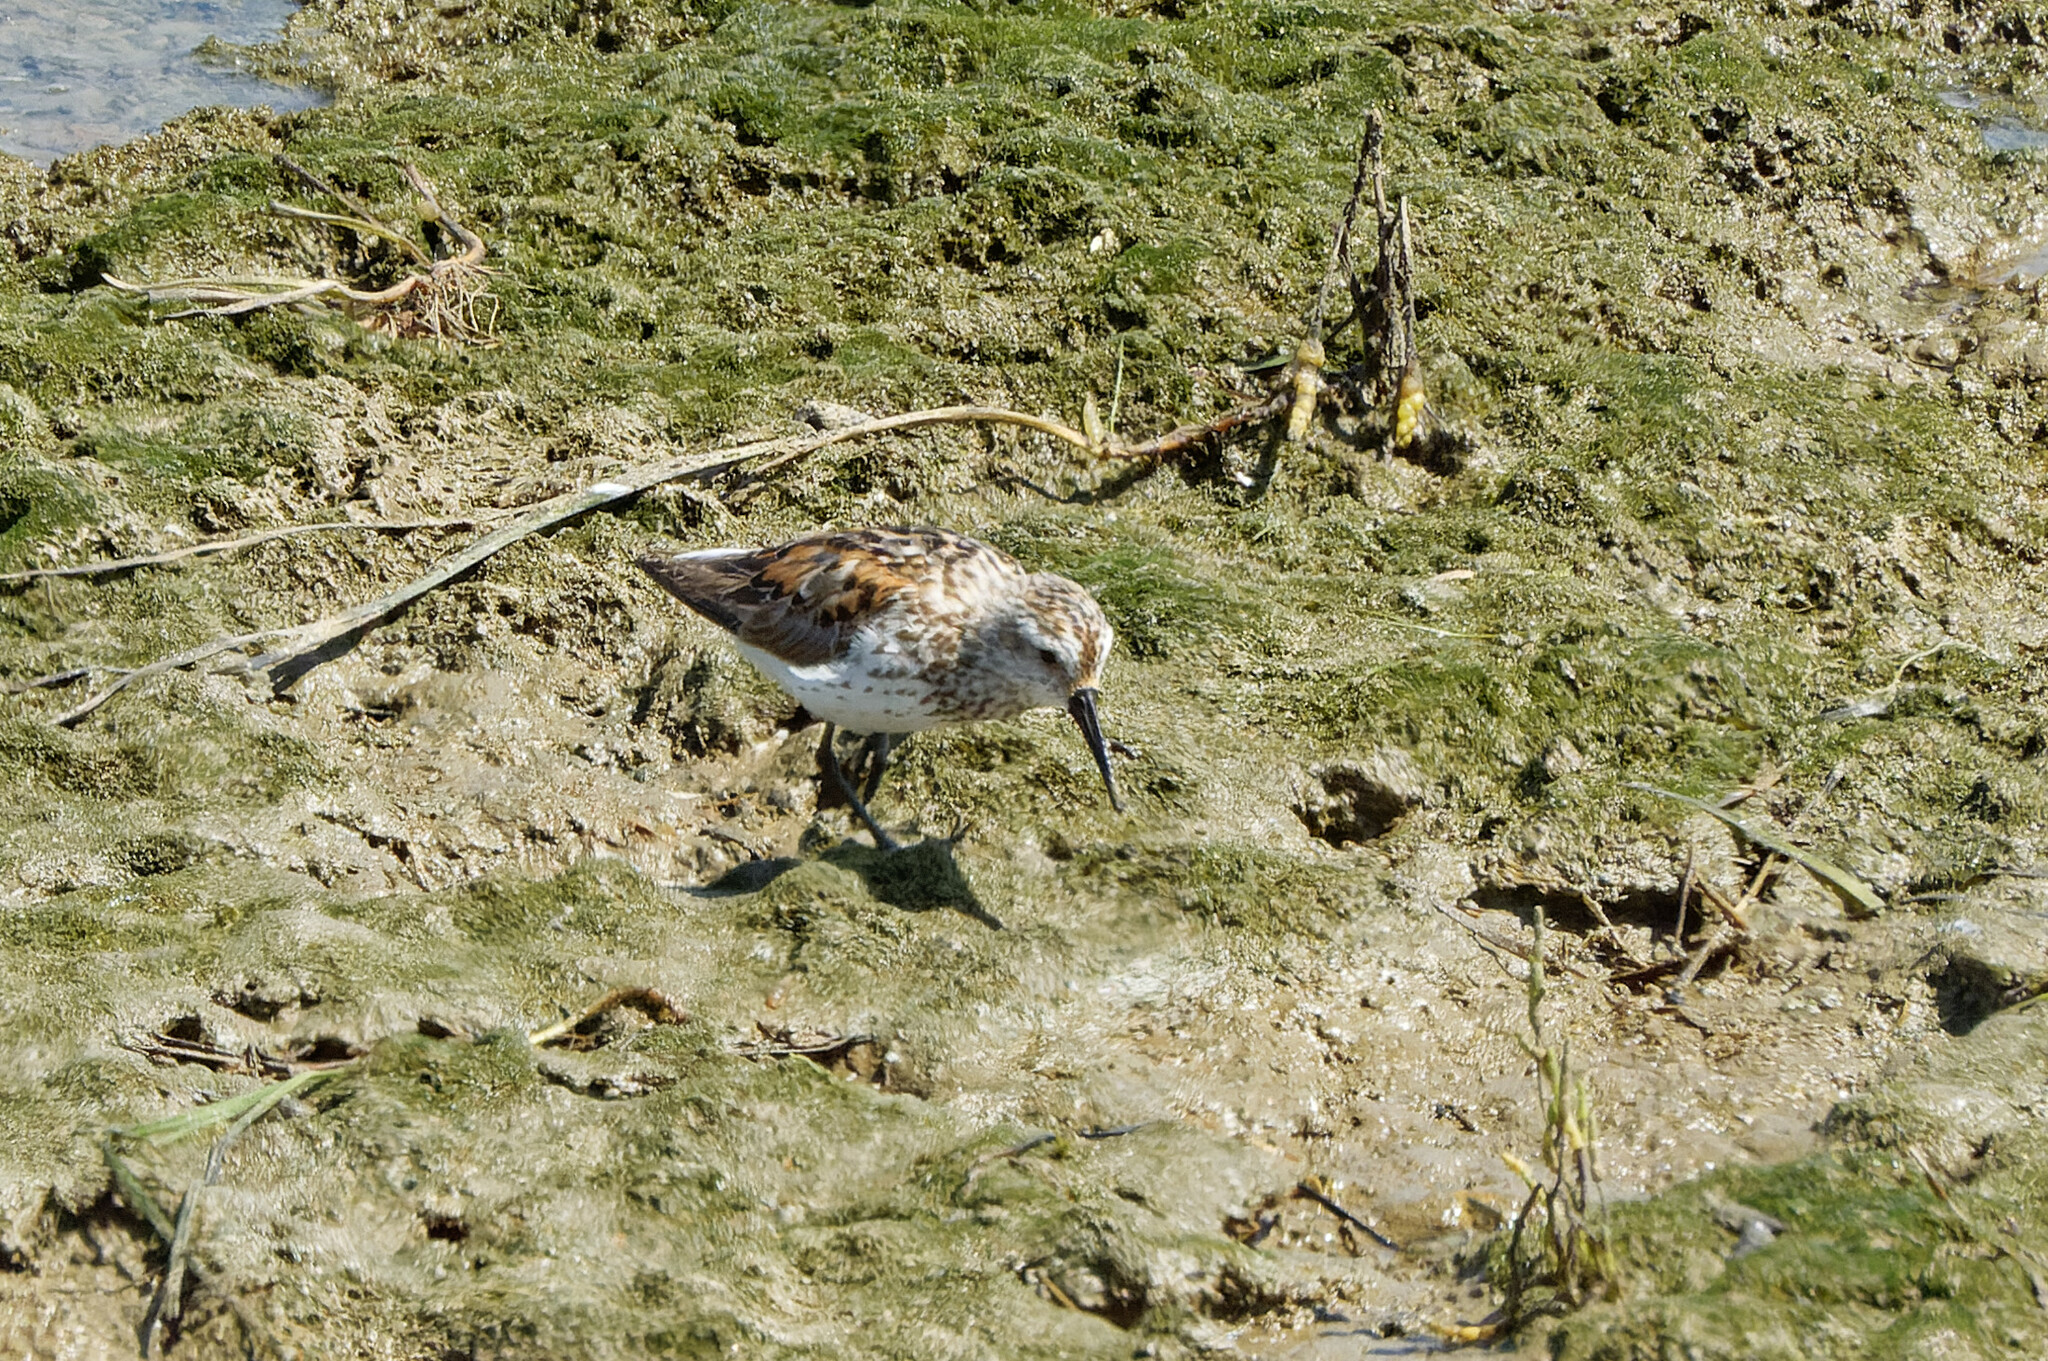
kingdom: Animalia
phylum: Chordata
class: Aves
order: Charadriiformes
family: Scolopacidae
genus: Calidris
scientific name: Calidris mauri
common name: Western sandpiper
